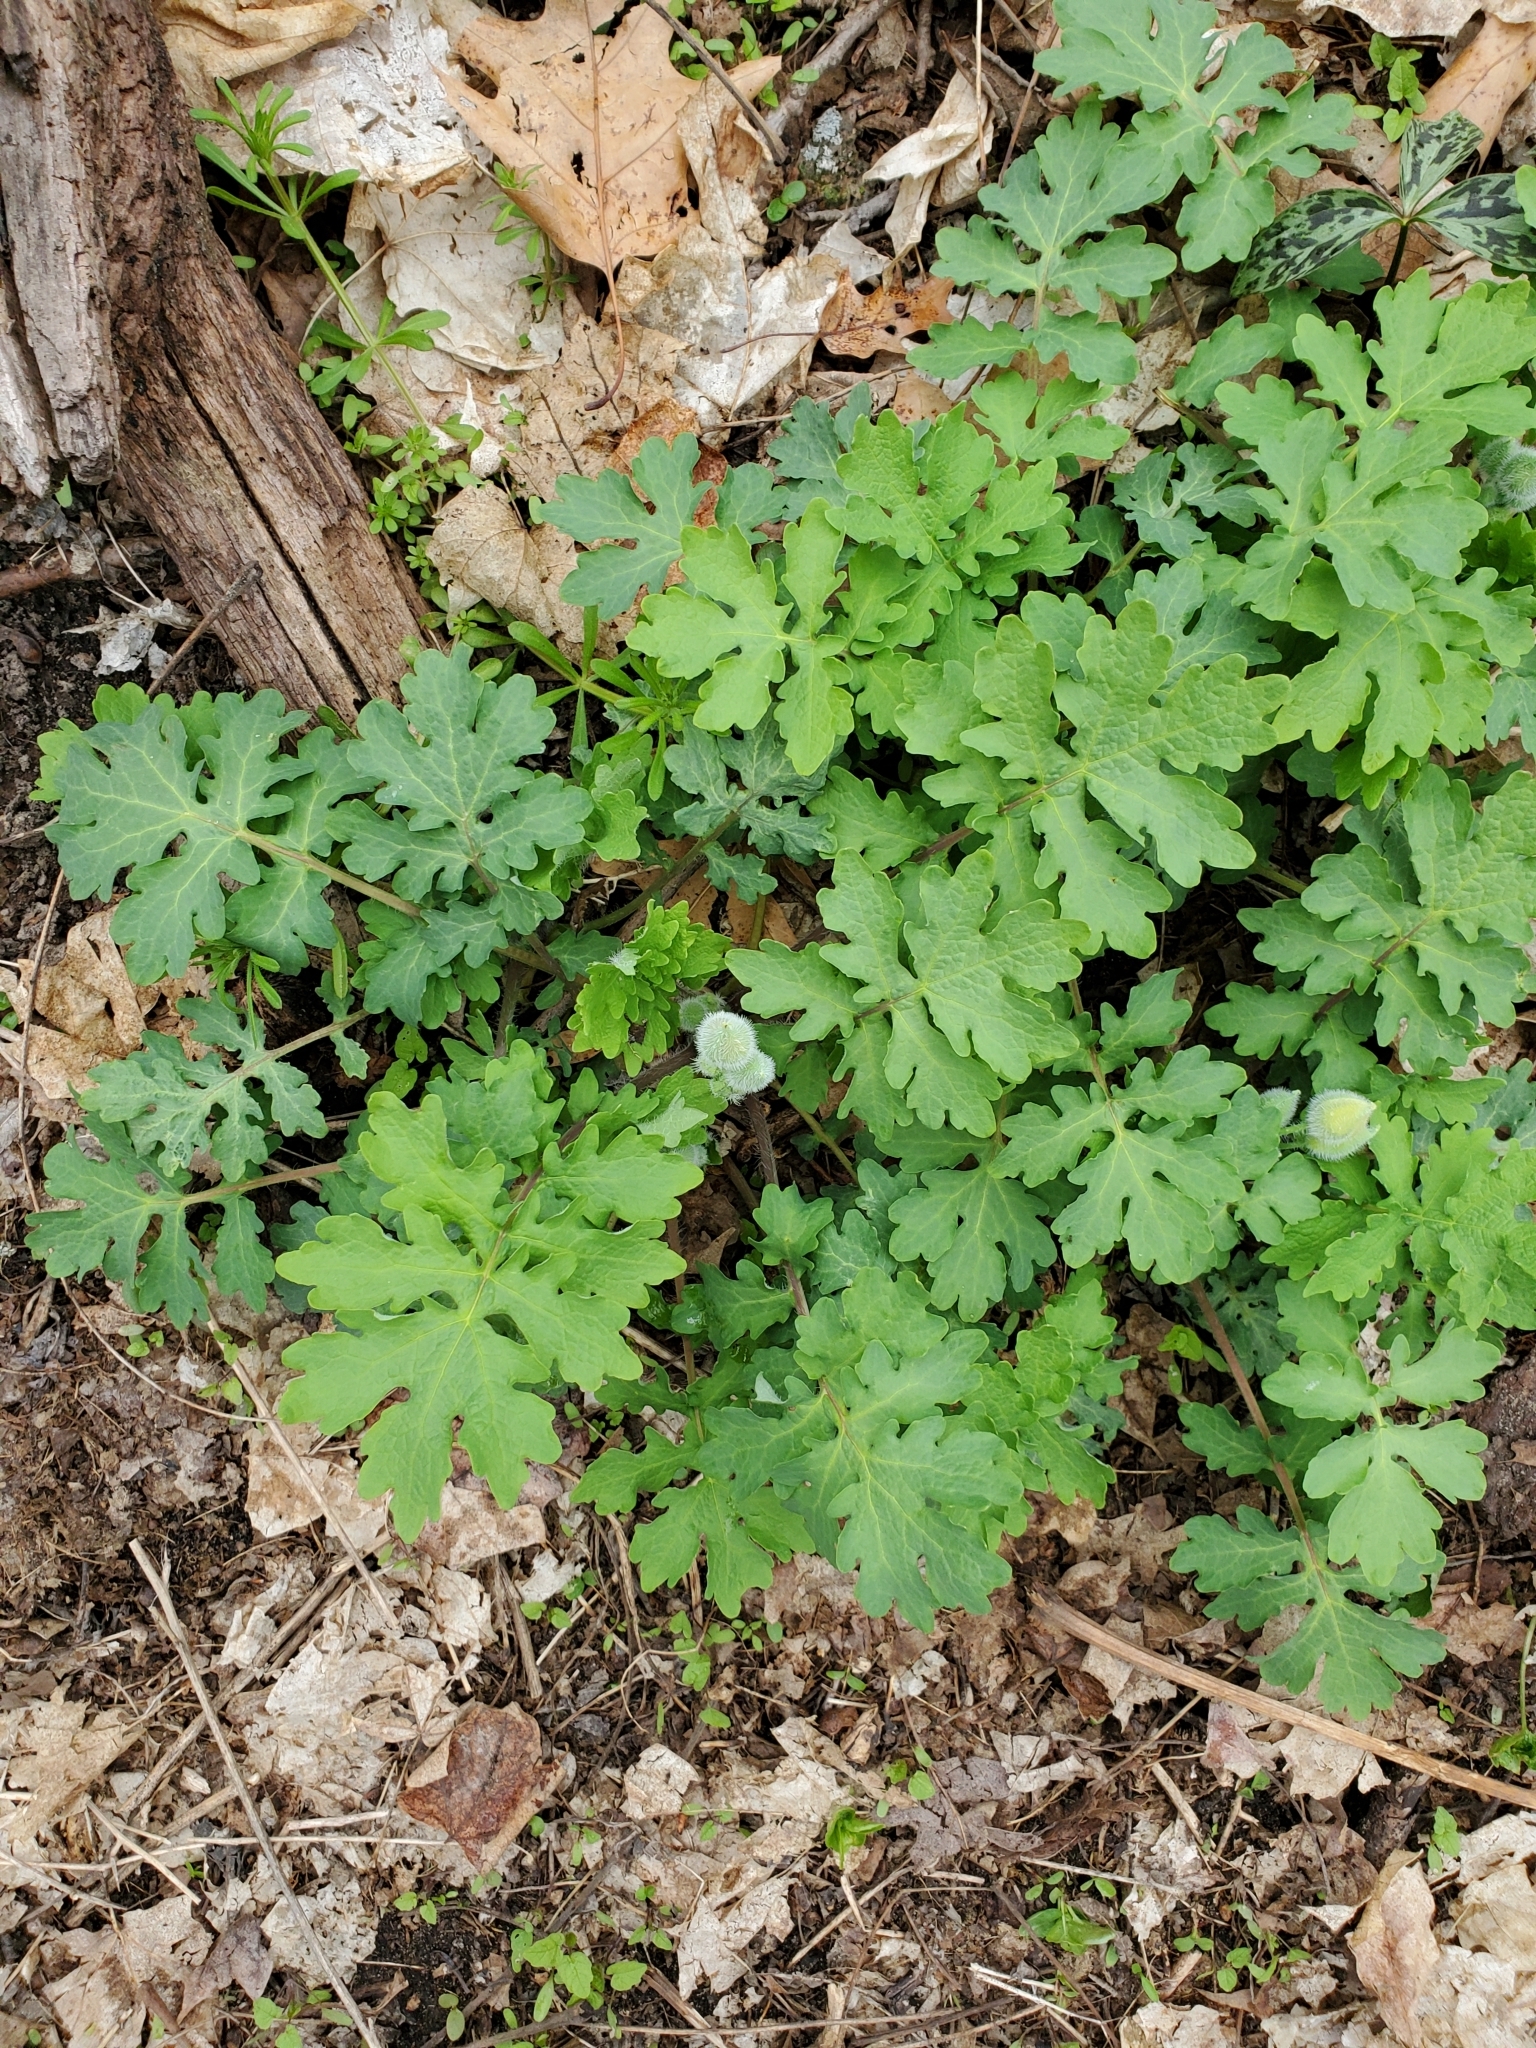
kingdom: Plantae
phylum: Tracheophyta
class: Magnoliopsida
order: Ranunculales
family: Papaveraceae
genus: Stylophorum
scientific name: Stylophorum diphyllum
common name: Celandine poppy
